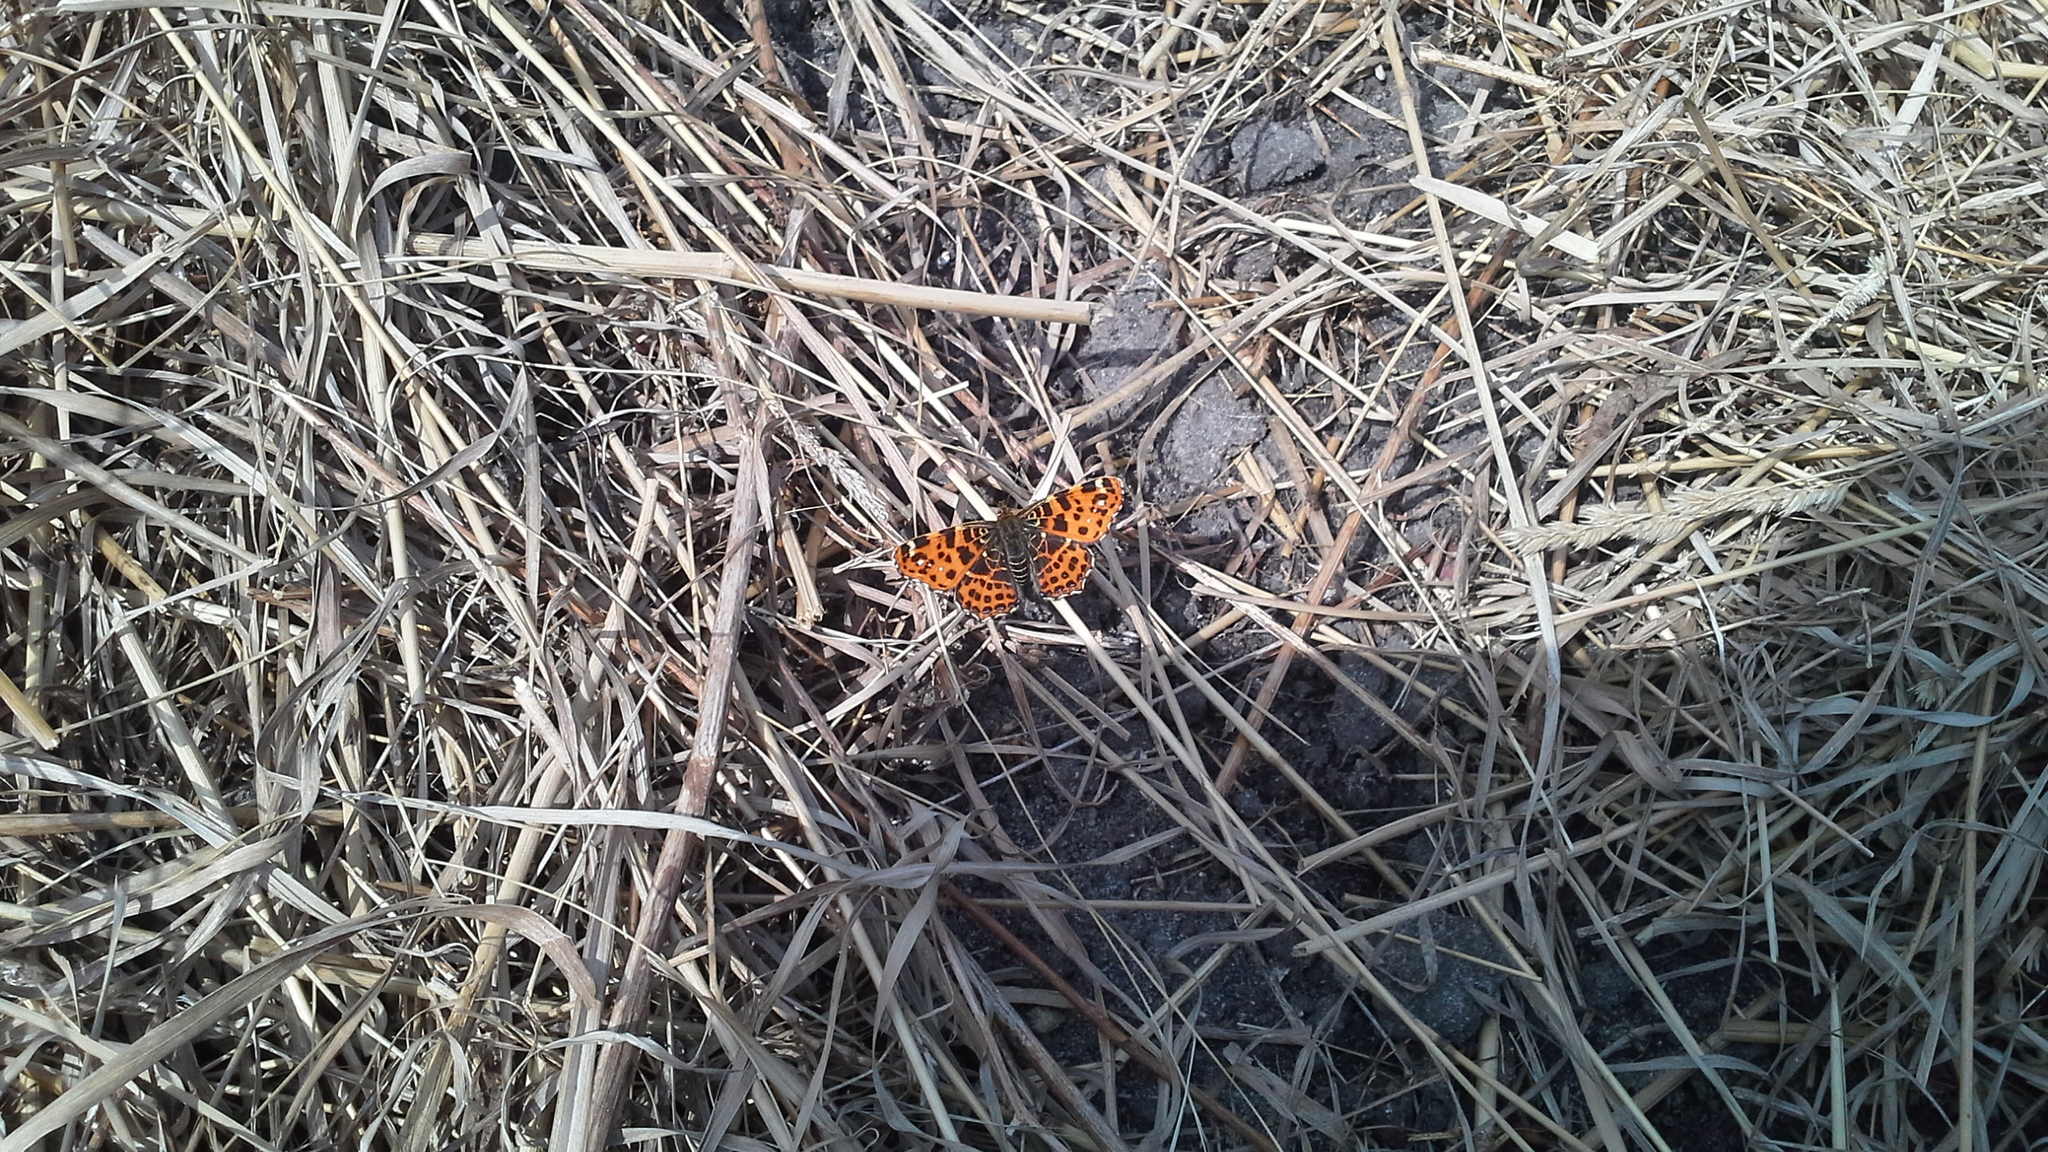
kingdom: Animalia
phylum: Arthropoda
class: Insecta
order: Lepidoptera
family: Nymphalidae
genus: Araschnia
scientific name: Araschnia levana
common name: Map butterfly
